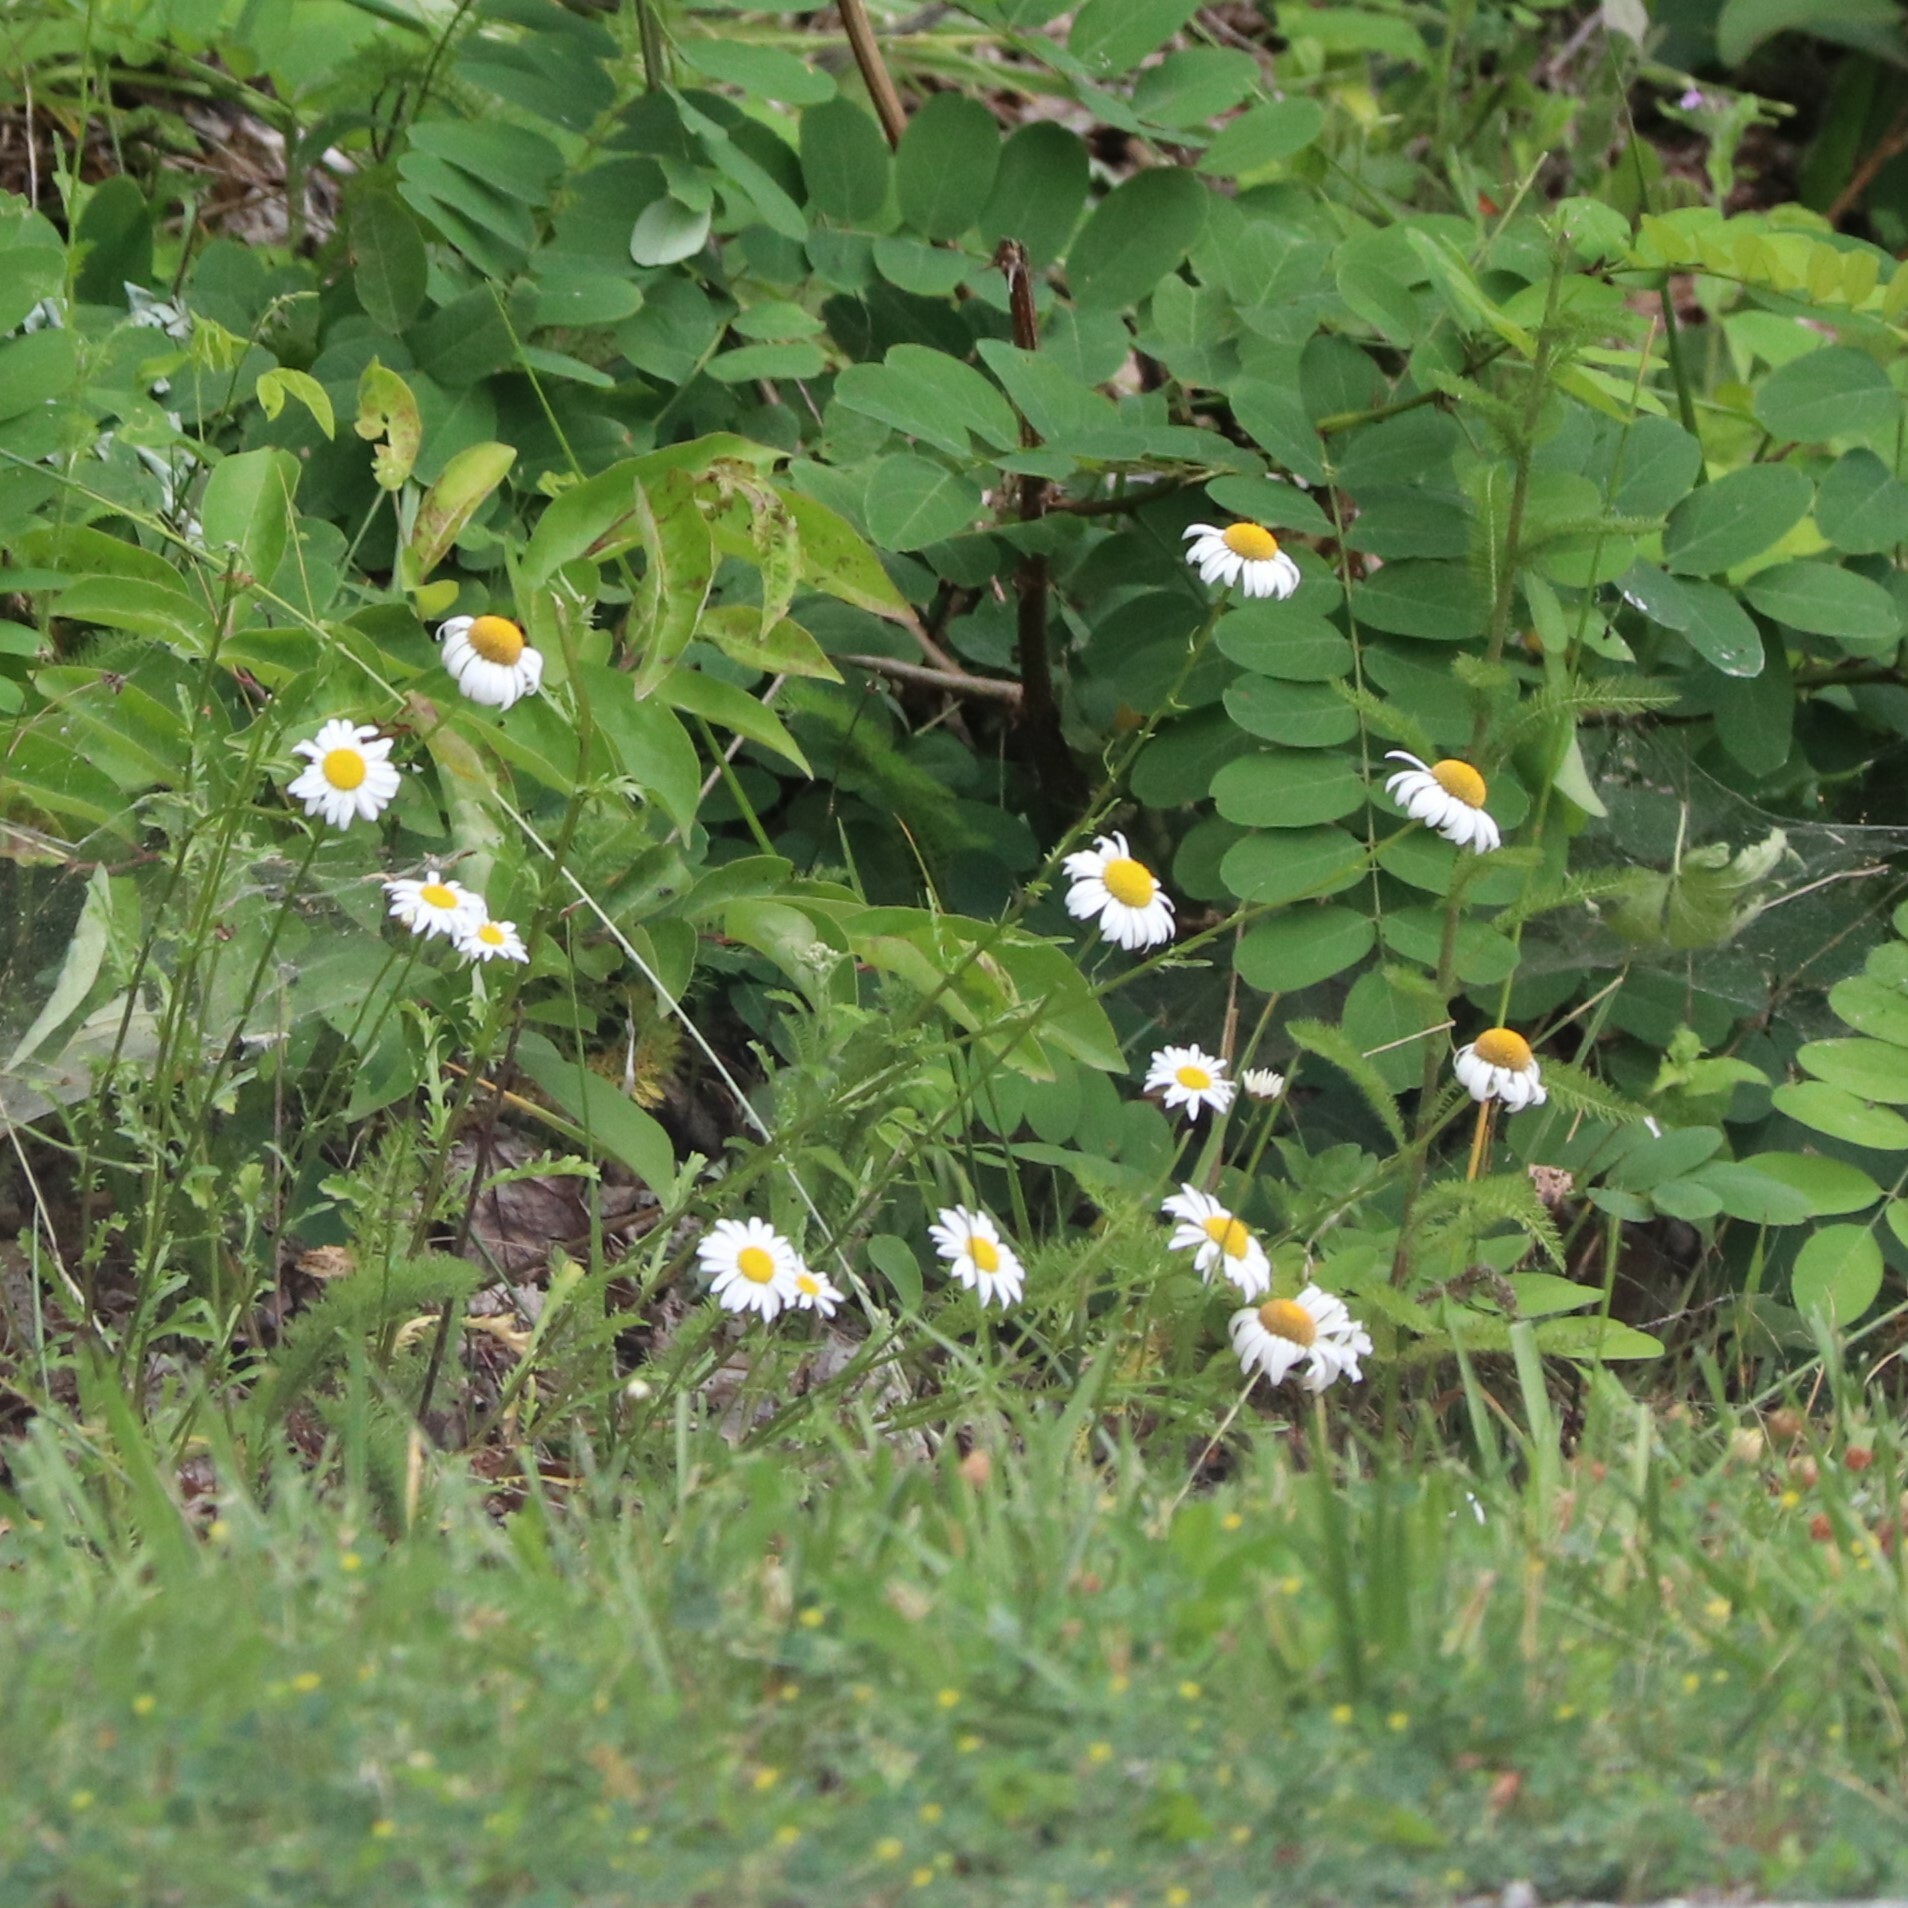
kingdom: Plantae
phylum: Tracheophyta
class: Magnoliopsida
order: Asterales
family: Asteraceae
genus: Leucanthemum
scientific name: Leucanthemum vulgare
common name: Oxeye daisy
